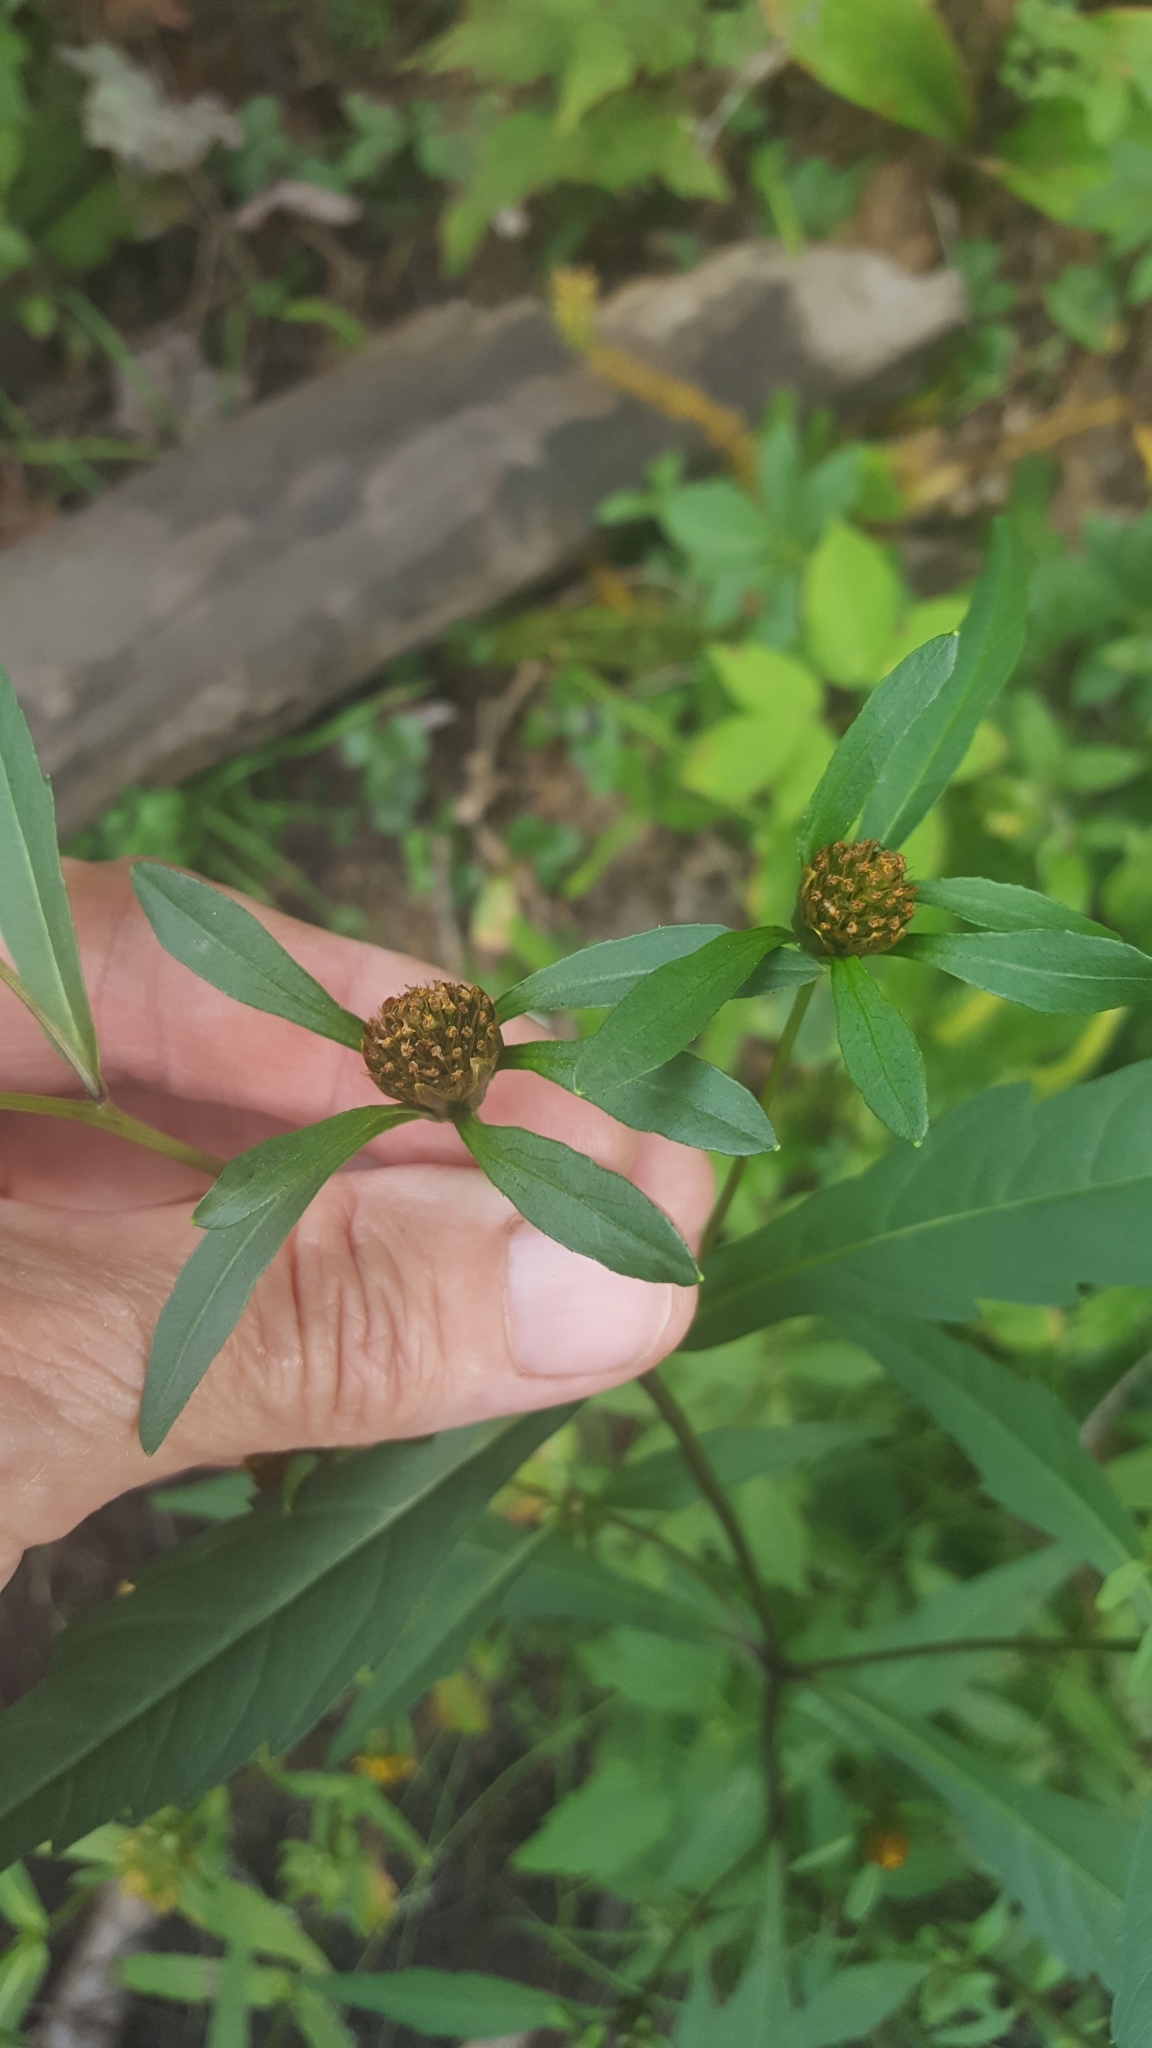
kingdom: Plantae
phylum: Tracheophyta
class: Magnoliopsida
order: Asterales
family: Asteraceae
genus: Bidens
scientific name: Bidens connata
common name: London bur-marigold
